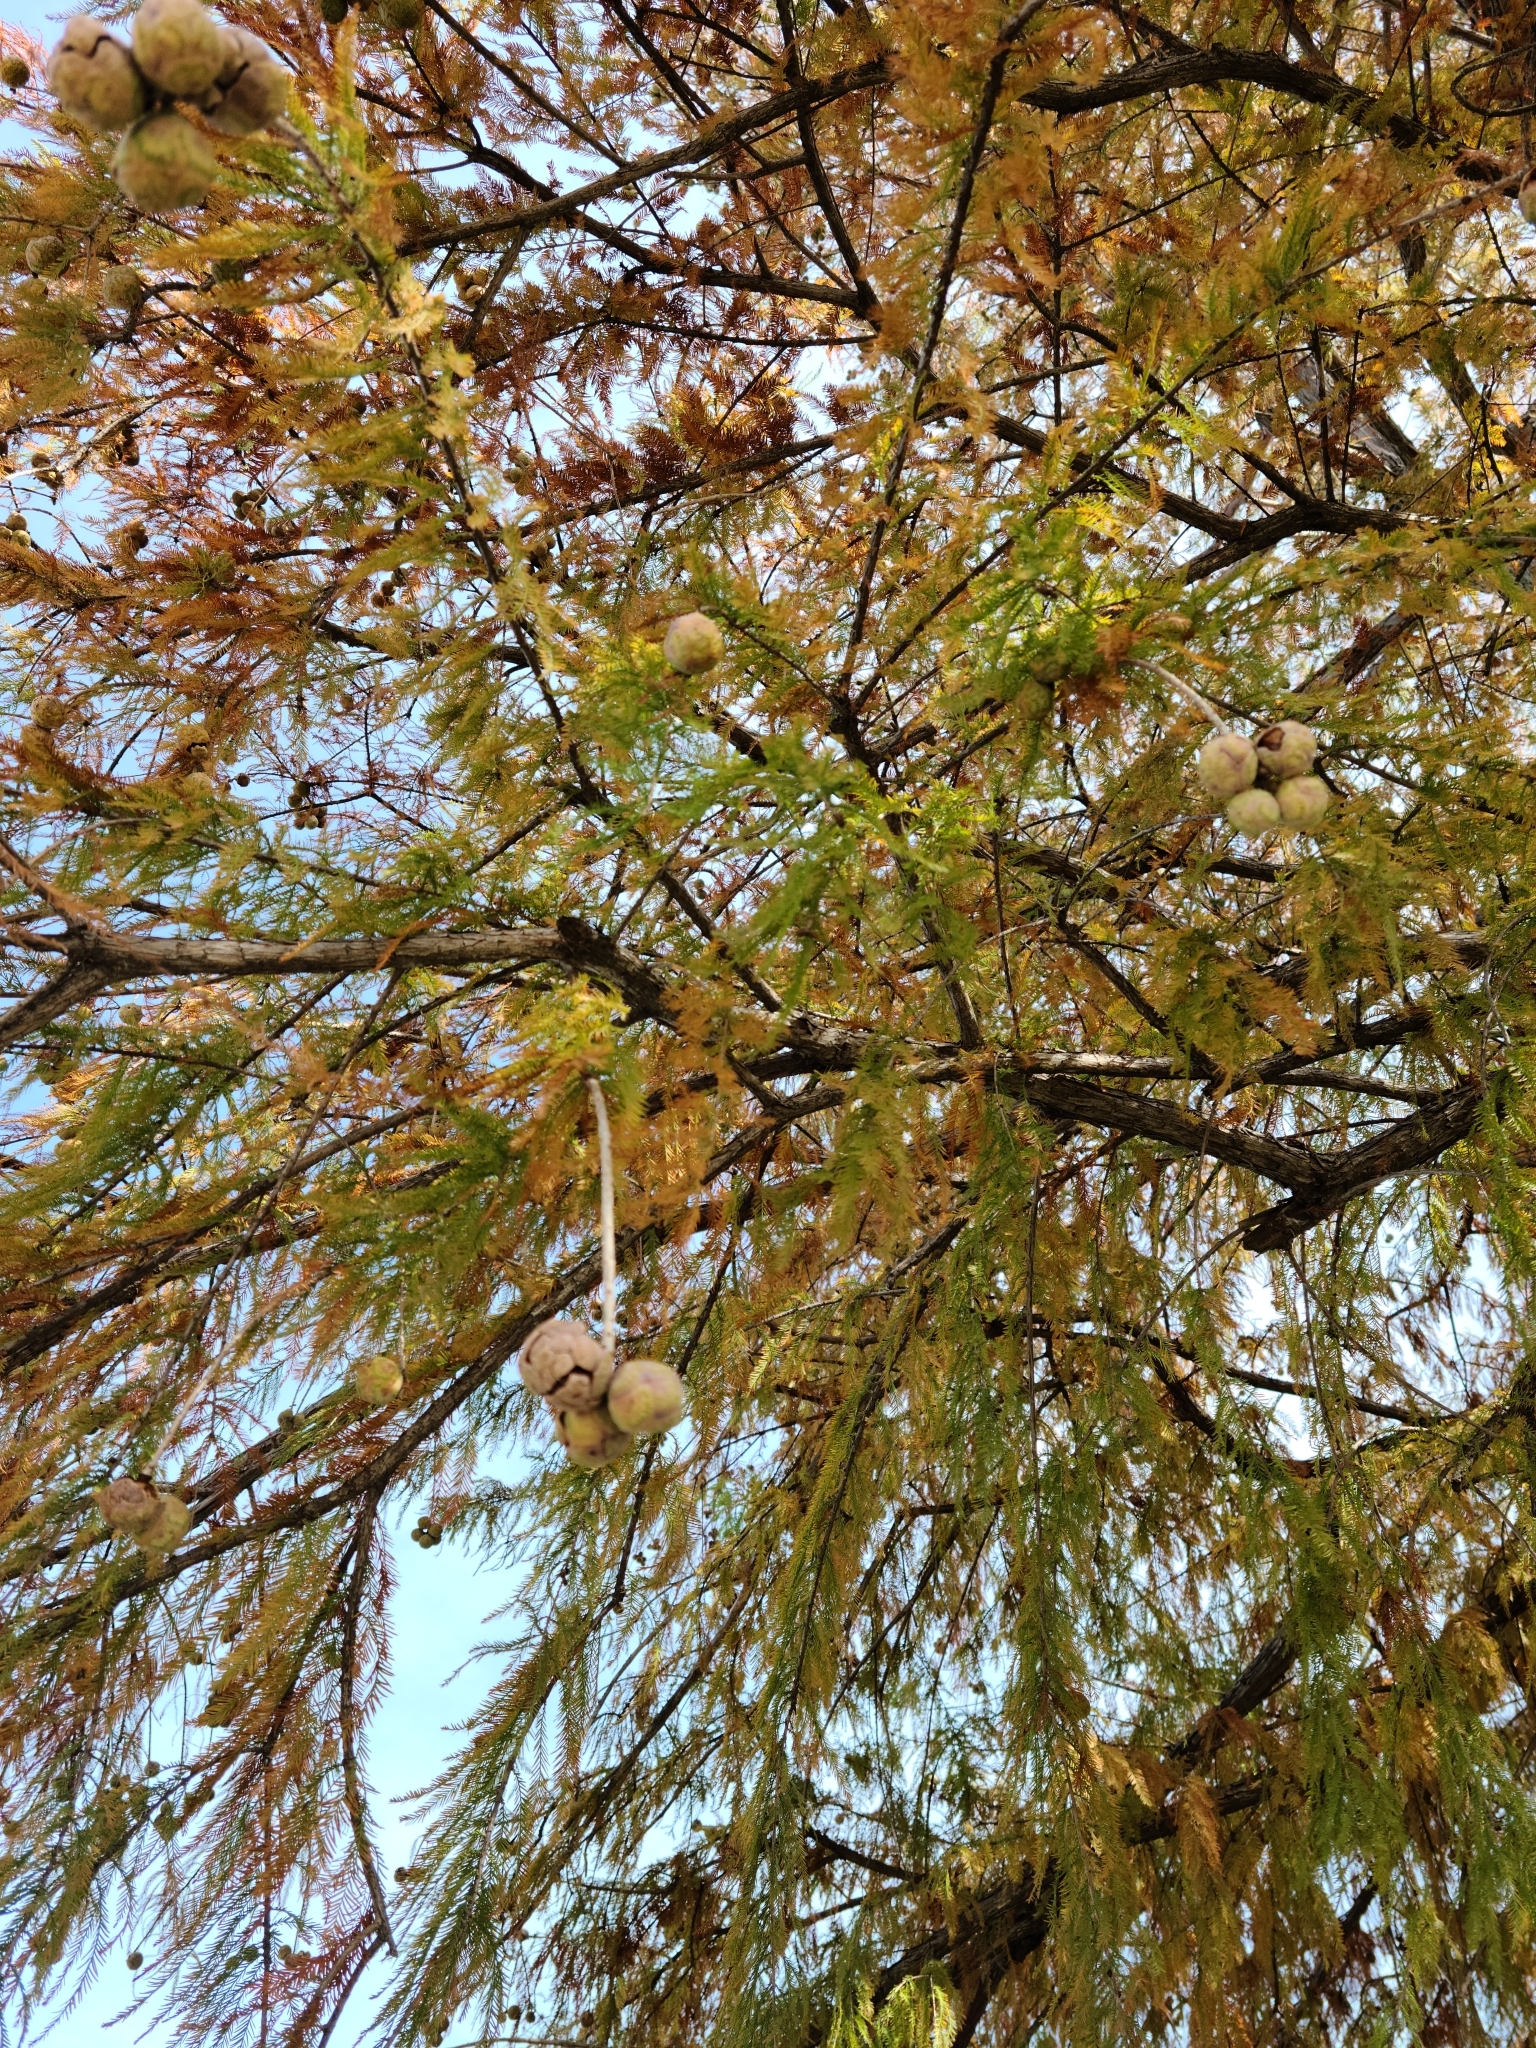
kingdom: Plantae
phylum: Tracheophyta
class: Pinopsida
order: Pinales
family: Cupressaceae
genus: Taxodium
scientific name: Taxodium distichum
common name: Bald cypress
